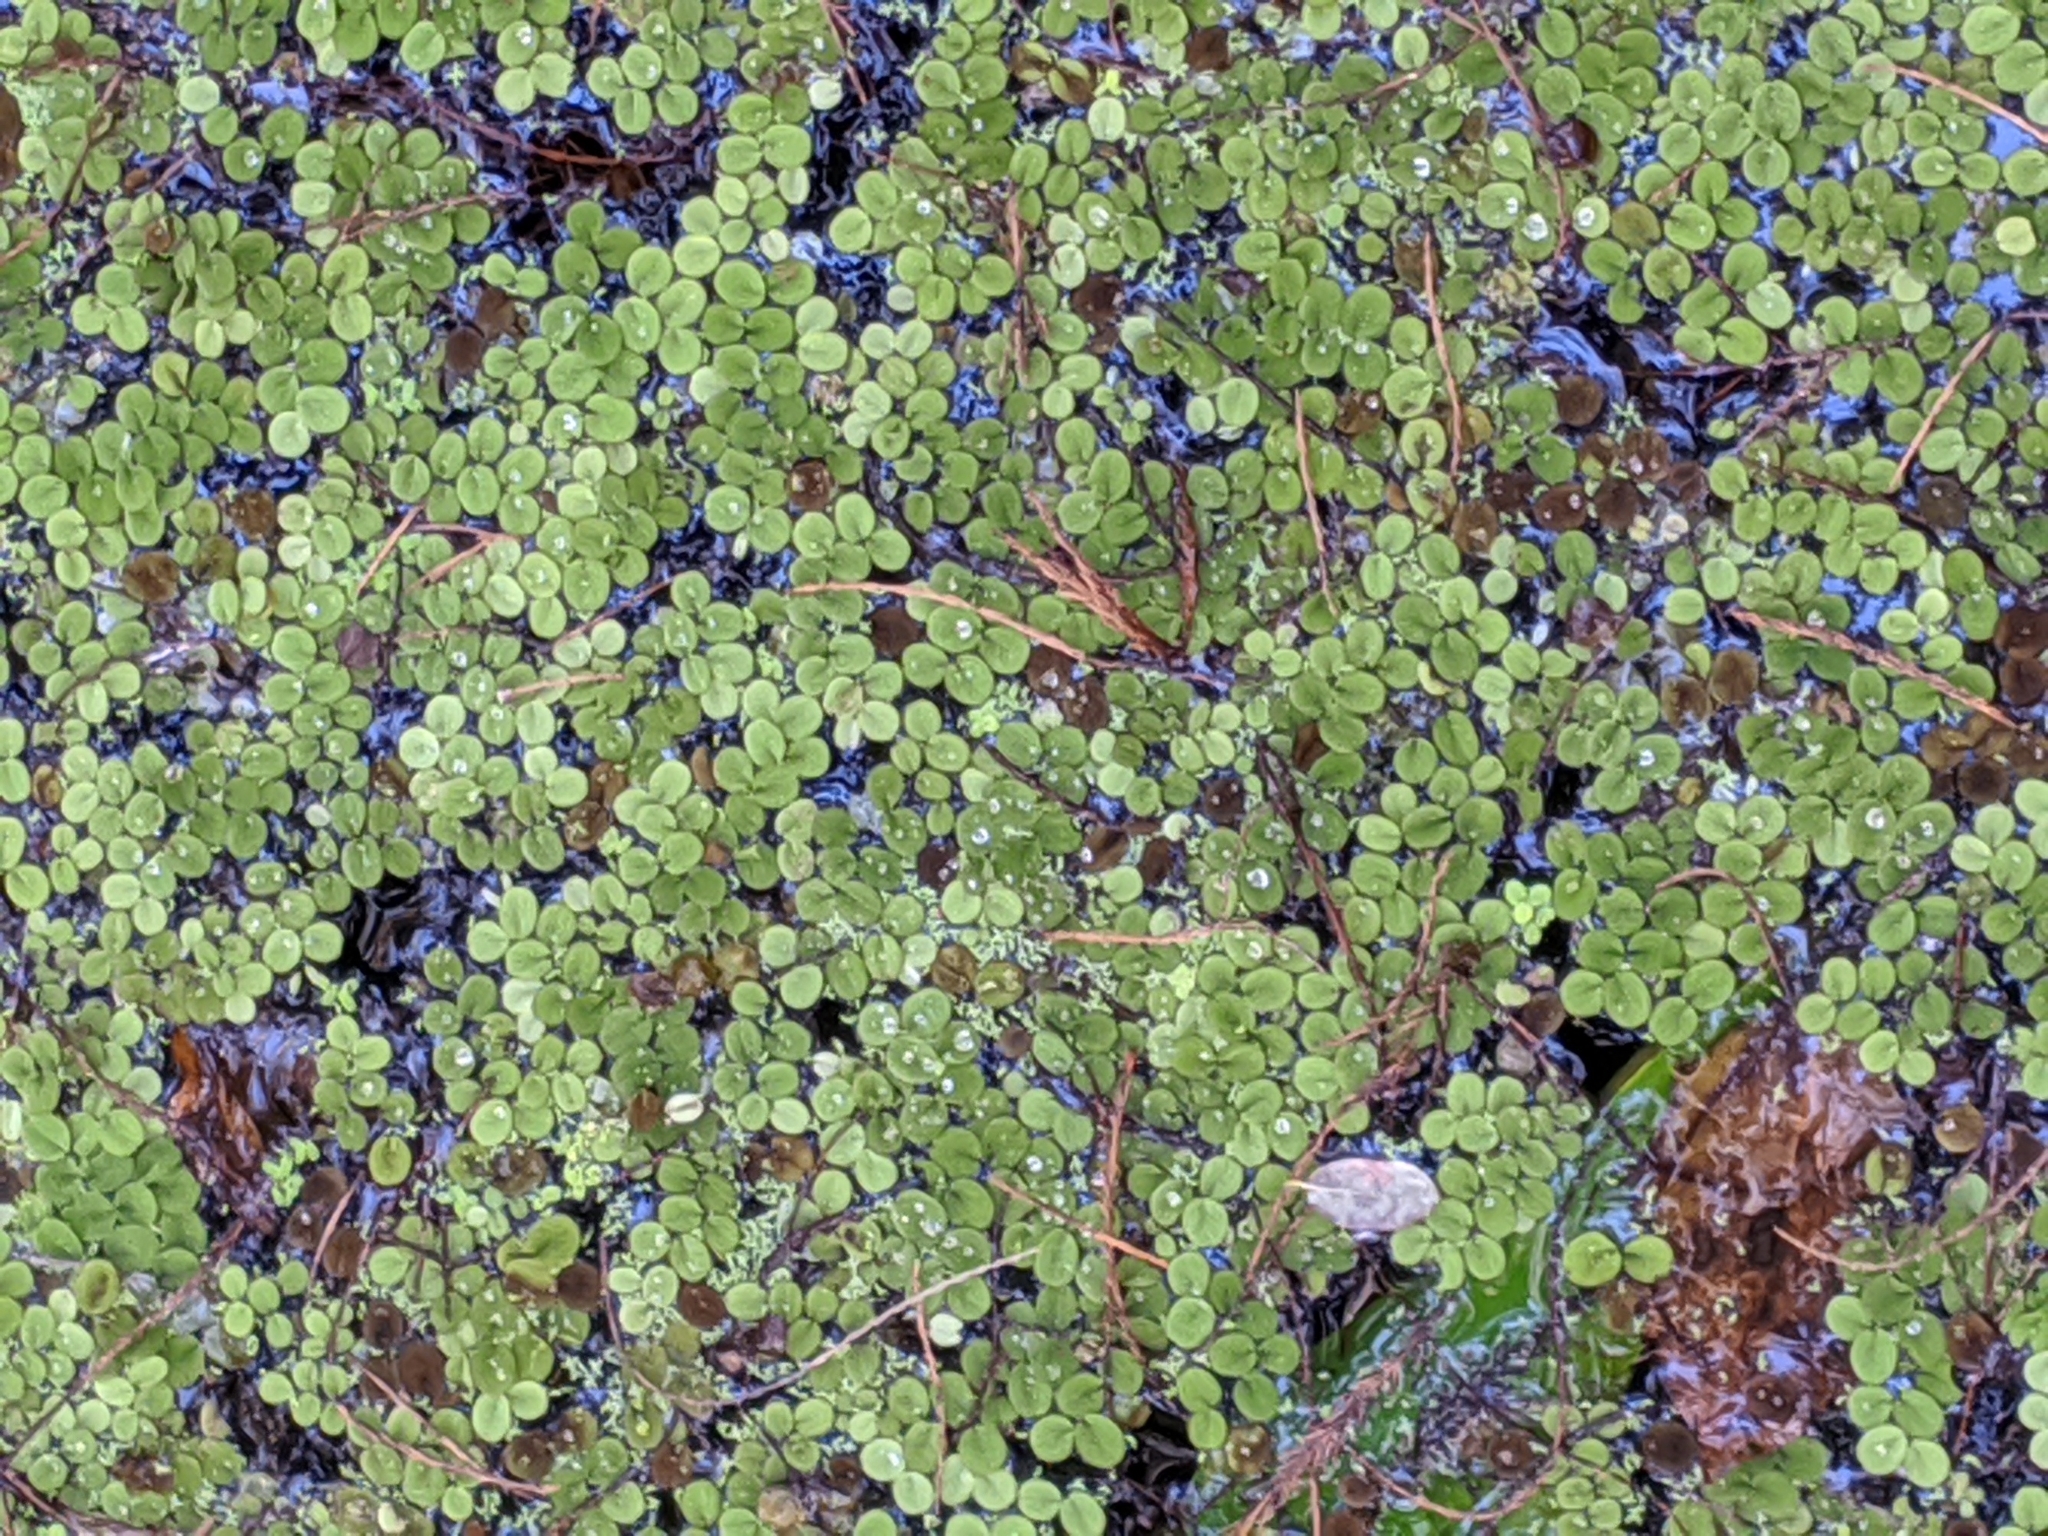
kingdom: Plantae
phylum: Tracheophyta
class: Polypodiopsida
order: Salviniales
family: Salviniaceae
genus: Salvinia
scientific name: Salvinia minima
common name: Water spangles
